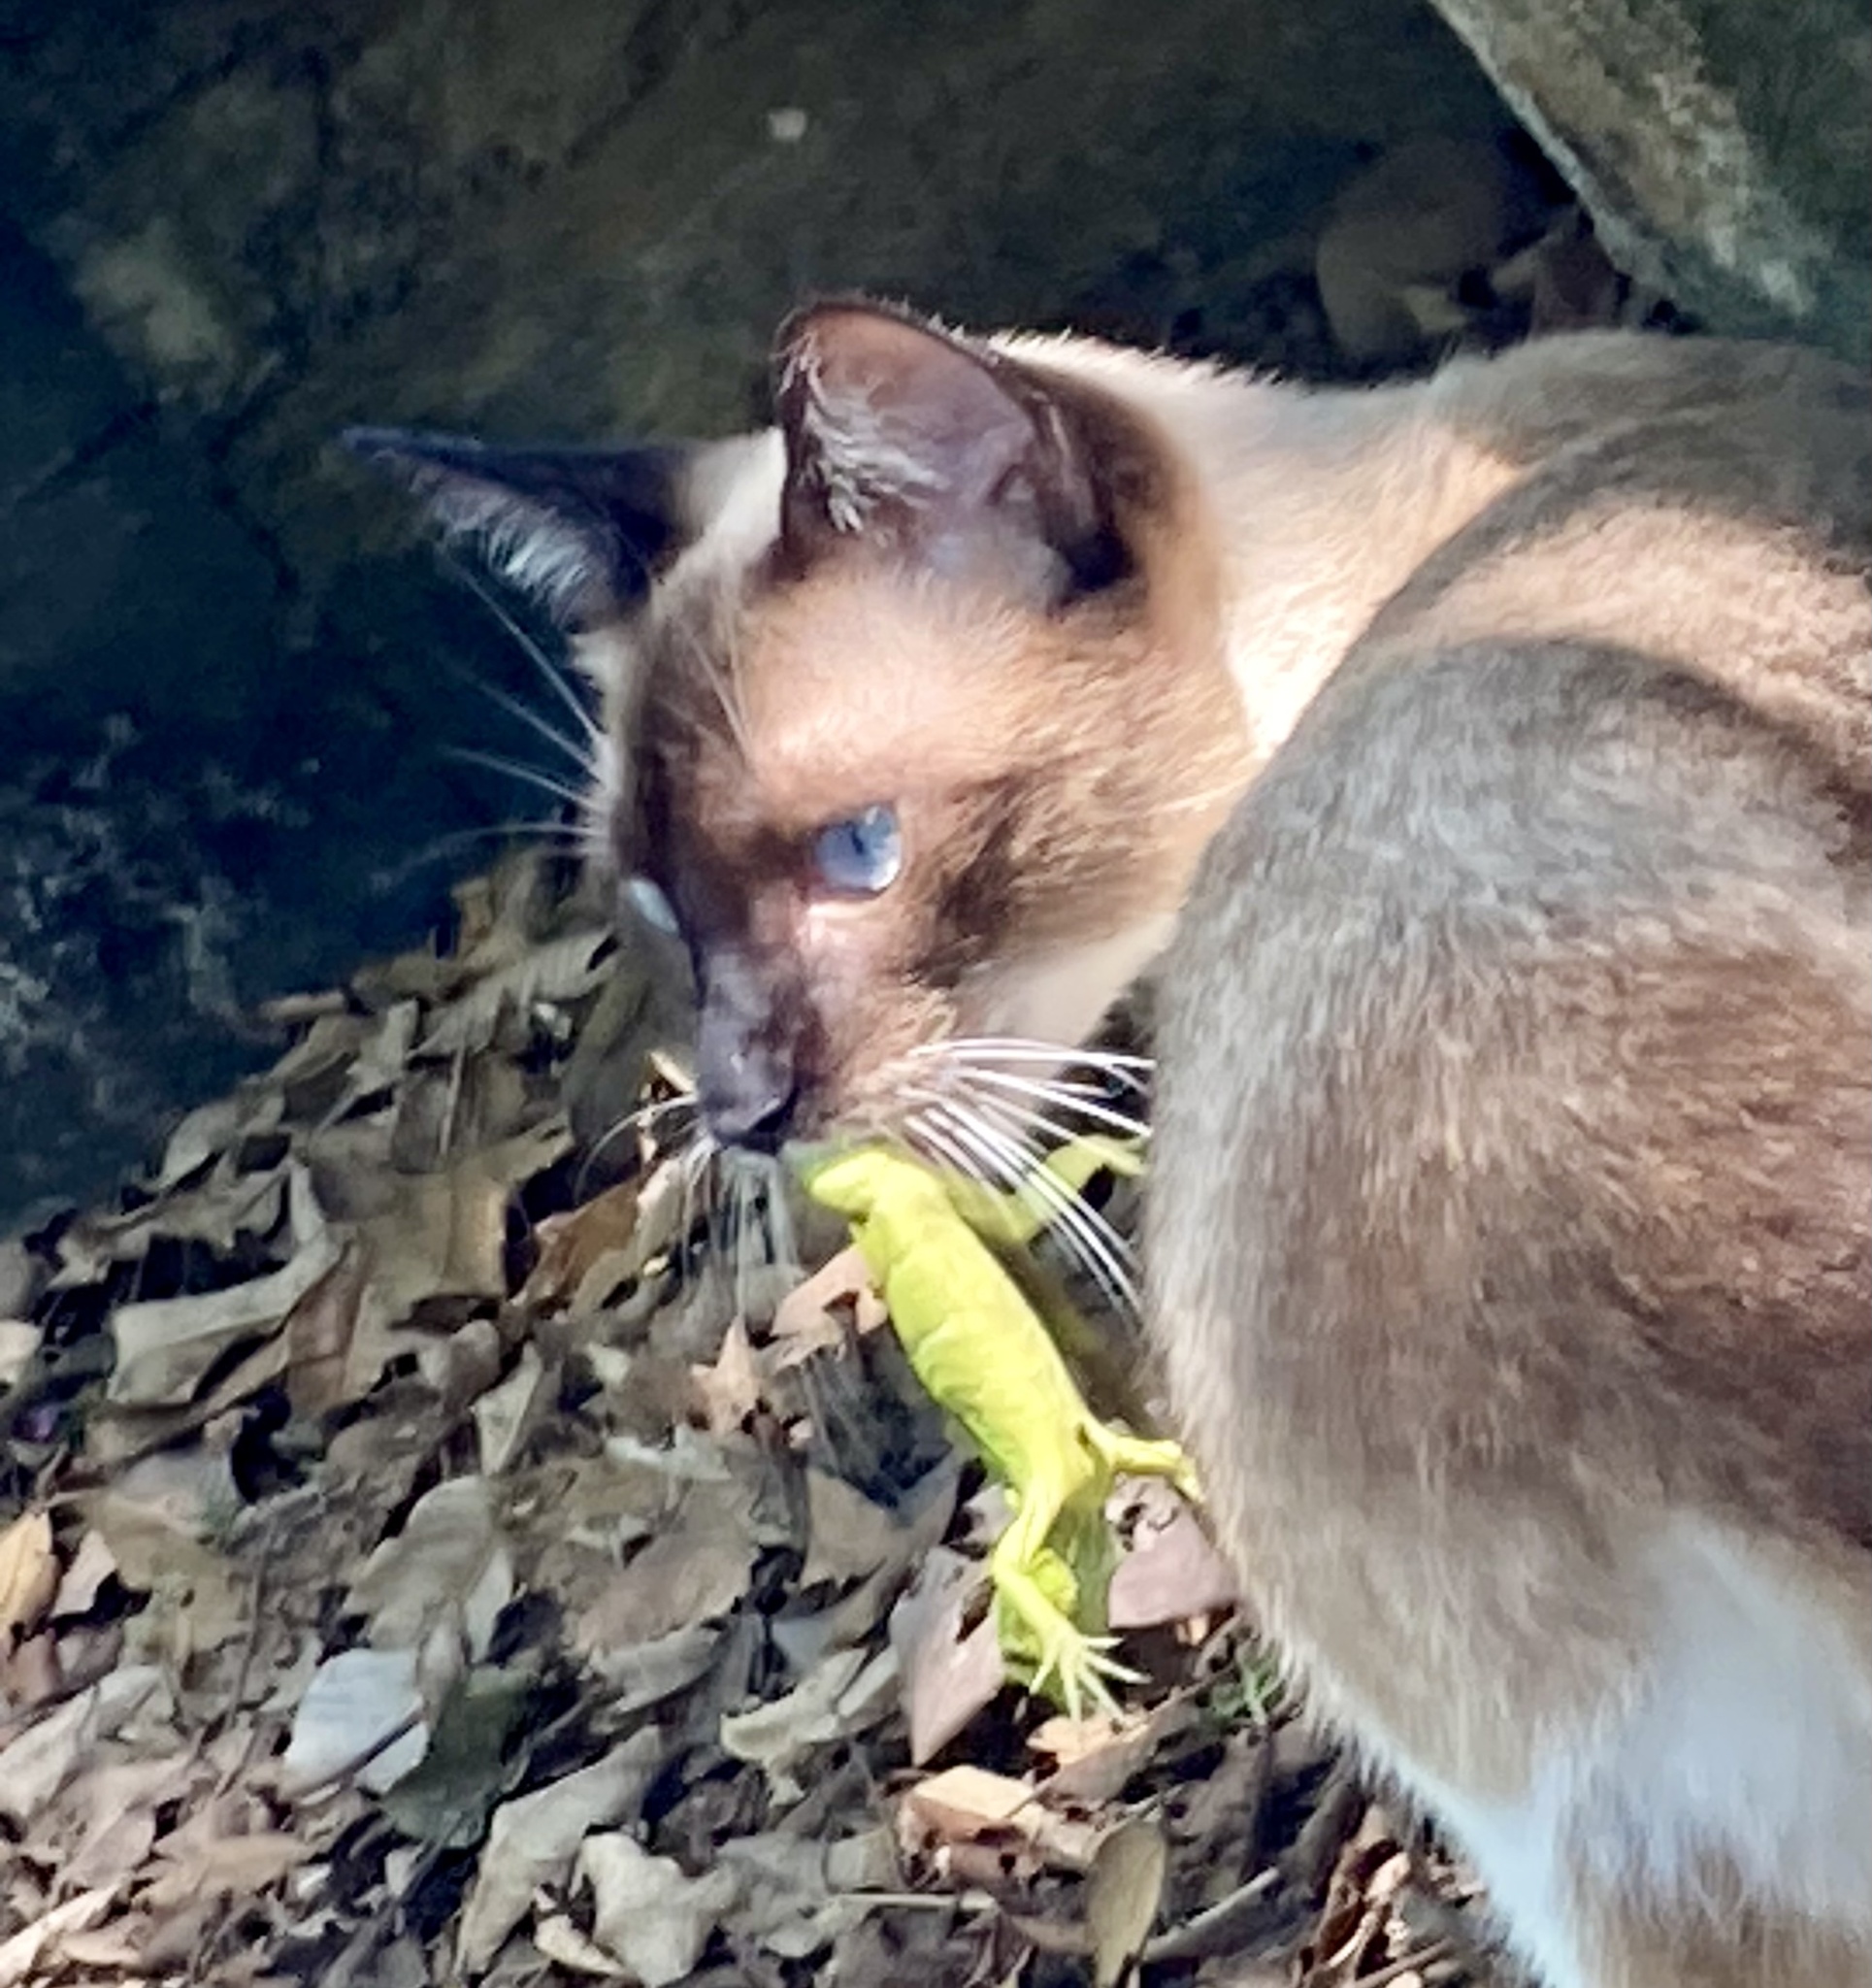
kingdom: Animalia
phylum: Chordata
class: Squamata
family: Iguanidae
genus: Iguana
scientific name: Iguana iguana
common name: Green iguana
